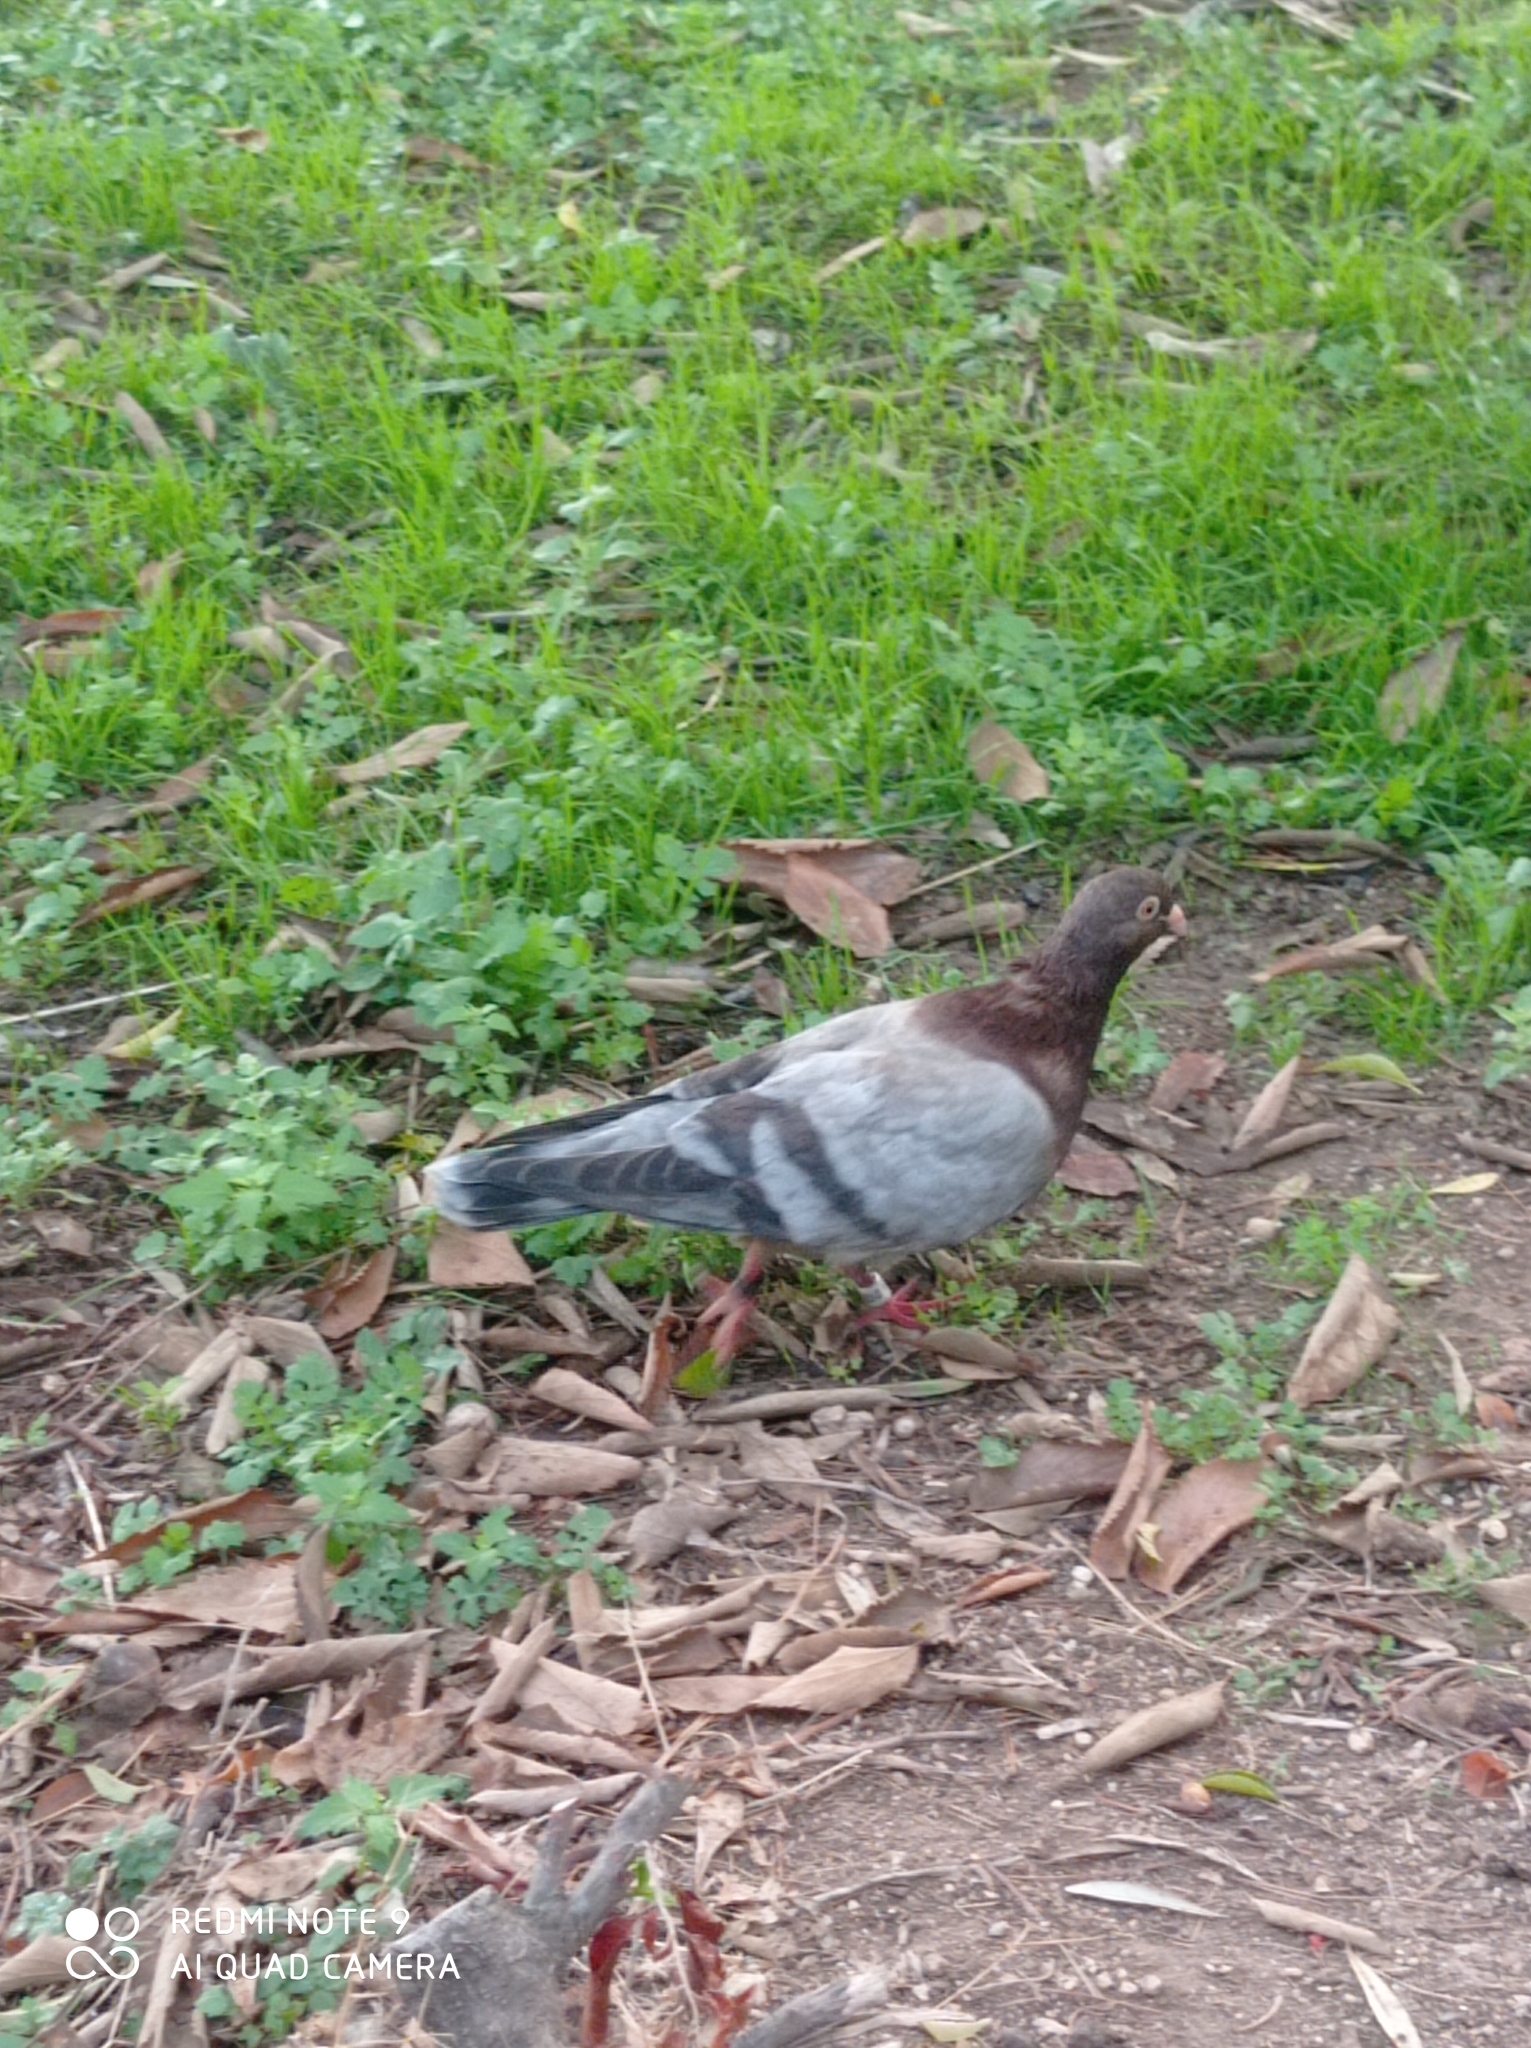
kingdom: Animalia
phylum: Chordata
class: Aves
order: Columbiformes
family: Columbidae
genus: Columba
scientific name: Columba livia
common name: Rock pigeon
